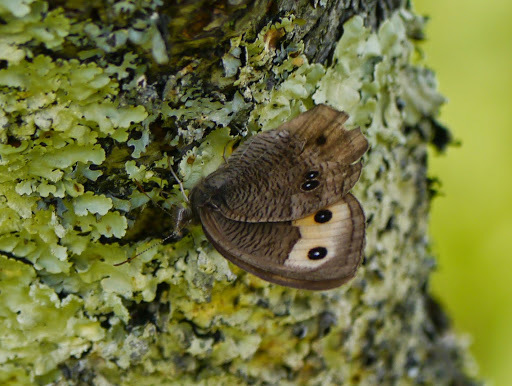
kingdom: Animalia
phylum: Arthropoda
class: Insecta
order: Lepidoptera
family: Nymphalidae
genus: Cercyonis
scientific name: Cercyonis pegala
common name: Common wood-nymph
